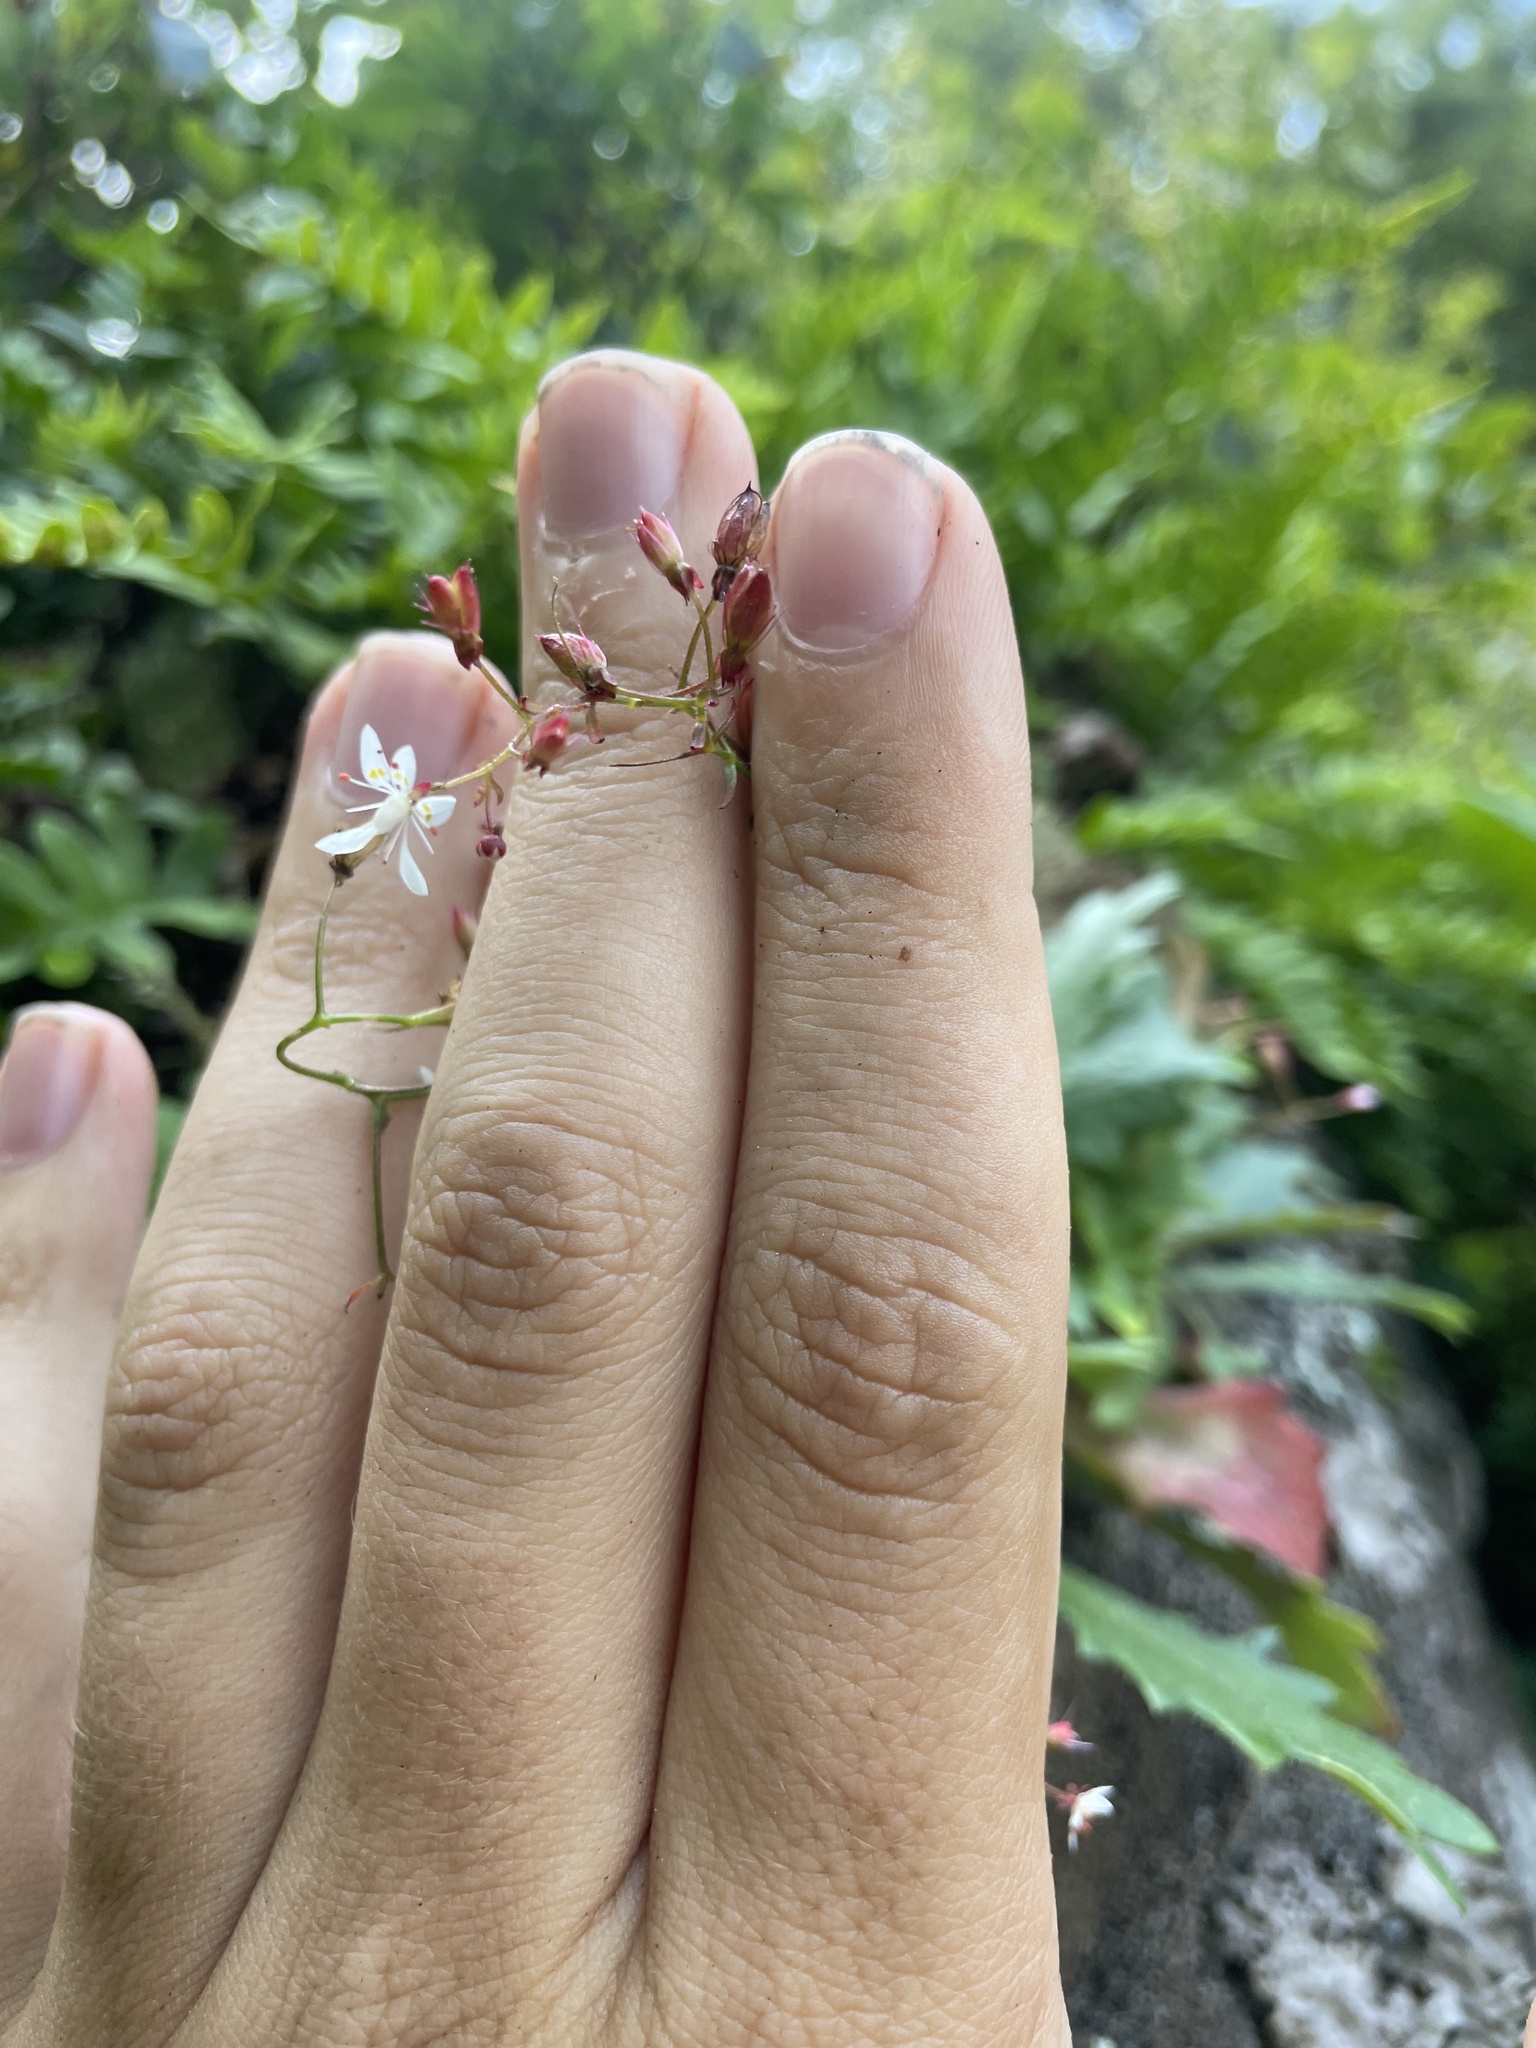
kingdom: Plantae
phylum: Tracheophyta
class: Magnoliopsida
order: Saxifragales
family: Saxifragaceae
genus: Micranthes
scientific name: Micranthes petiolaris
